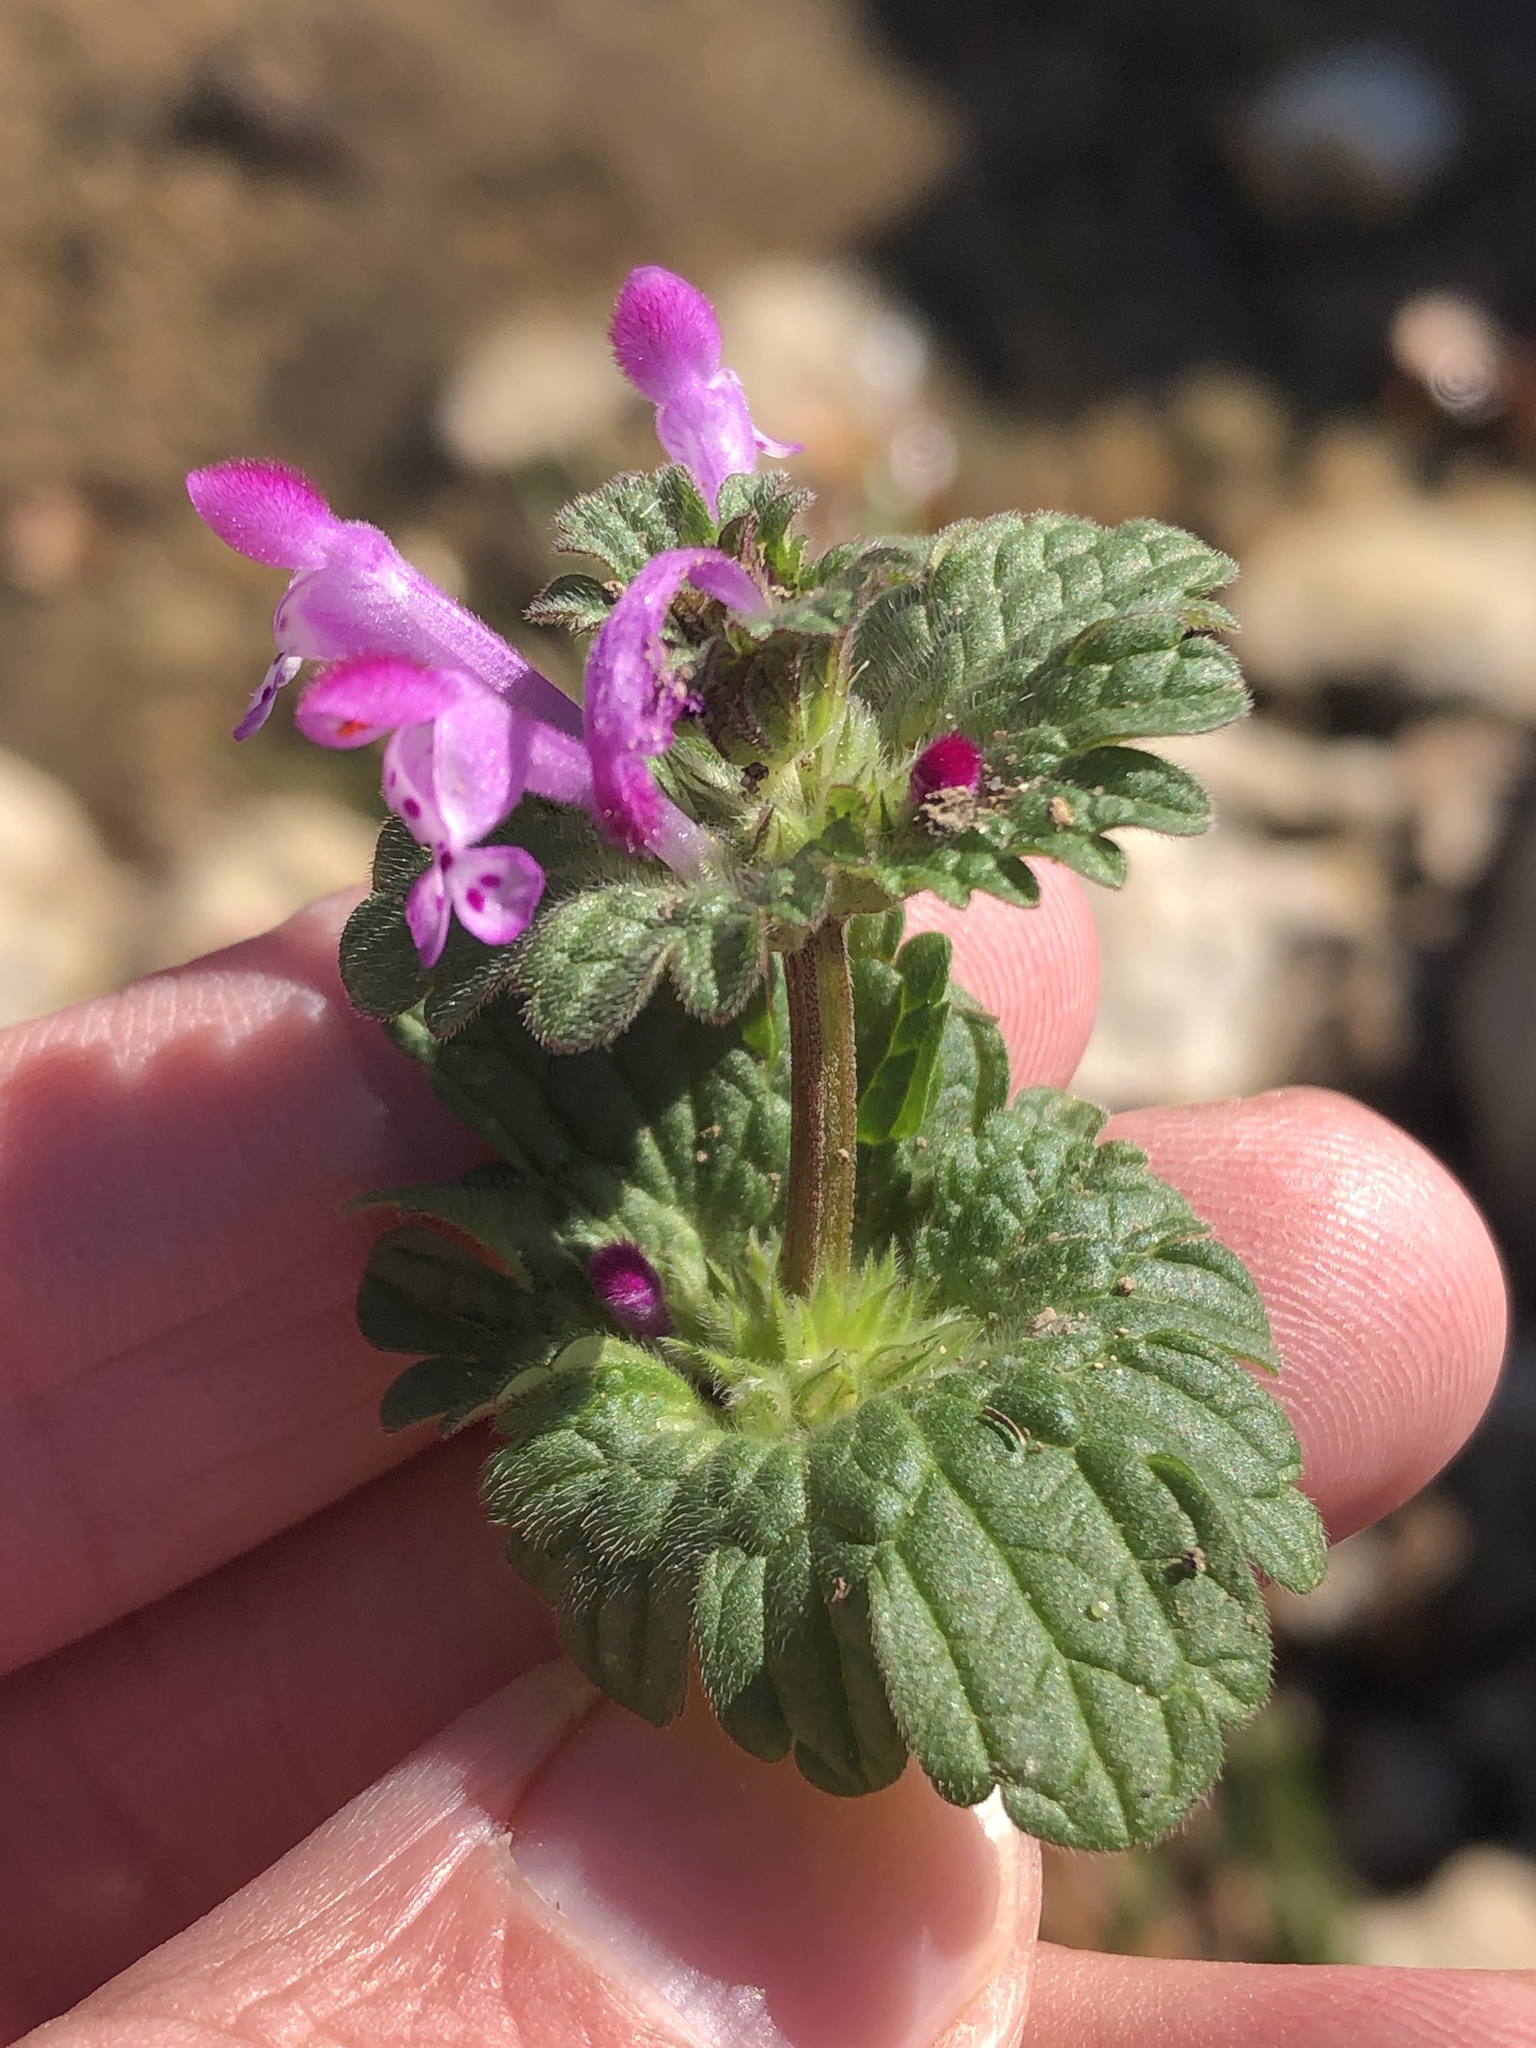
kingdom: Plantae
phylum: Tracheophyta
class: Magnoliopsida
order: Lamiales
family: Lamiaceae
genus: Lamium
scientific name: Lamium amplexicaule
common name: Henbit dead-nettle
